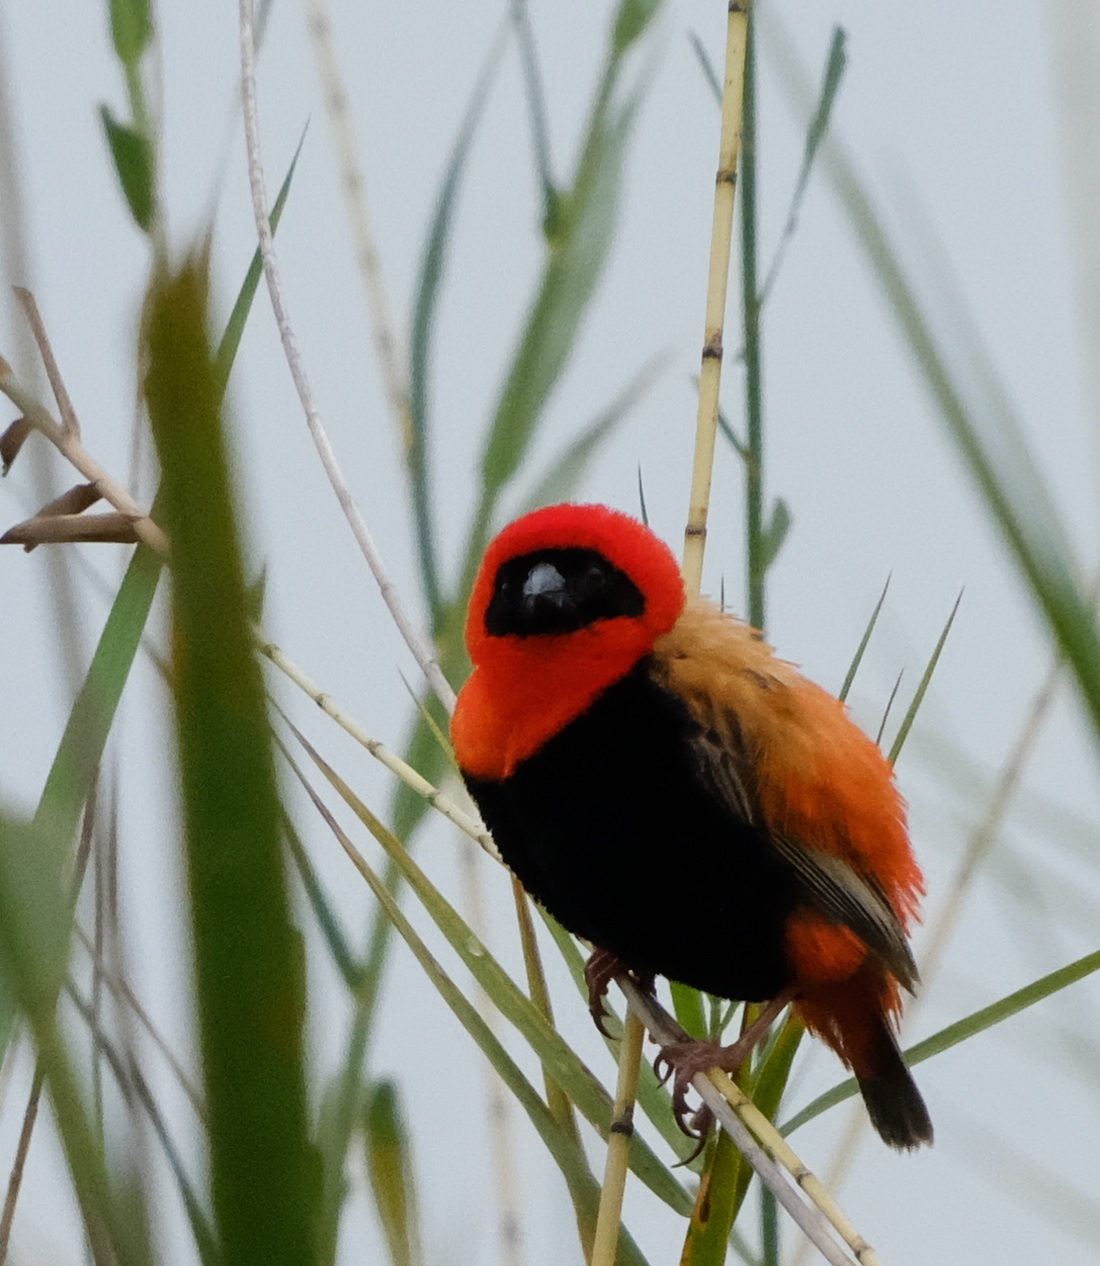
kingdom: Animalia
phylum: Chordata
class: Aves
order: Passeriformes
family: Ploceidae
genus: Euplectes
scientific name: Euplectes orix
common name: Southern red bishop
